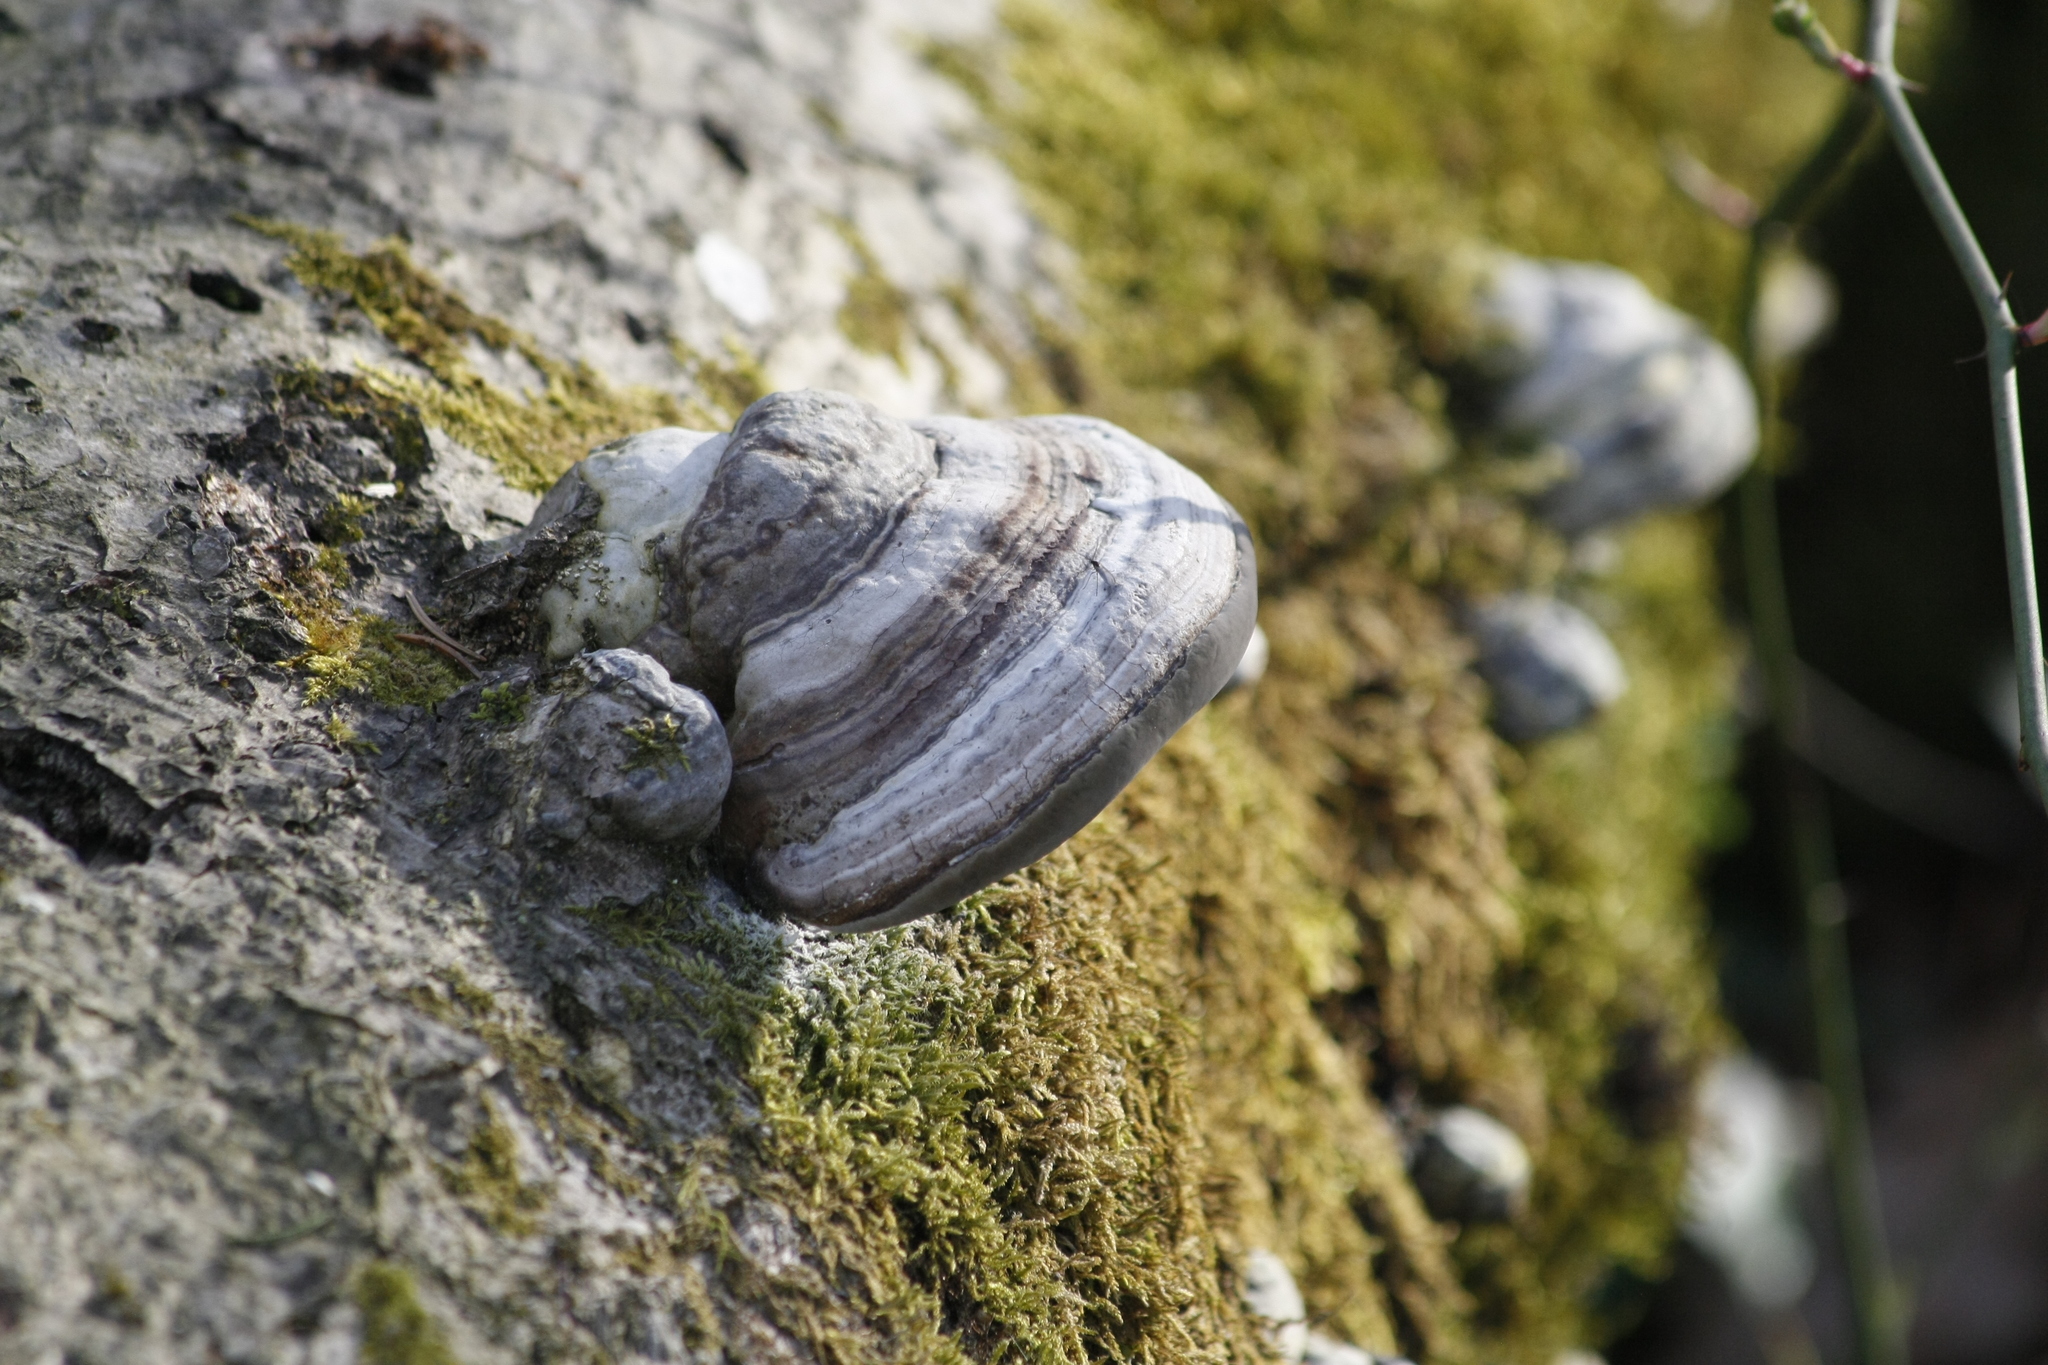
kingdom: Fungi
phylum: Basidiomycota
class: Agaricomycetes
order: Polyporales
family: Polyporaceae
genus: Fomes
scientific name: Fomes fomentarius
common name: Hoof fungus
